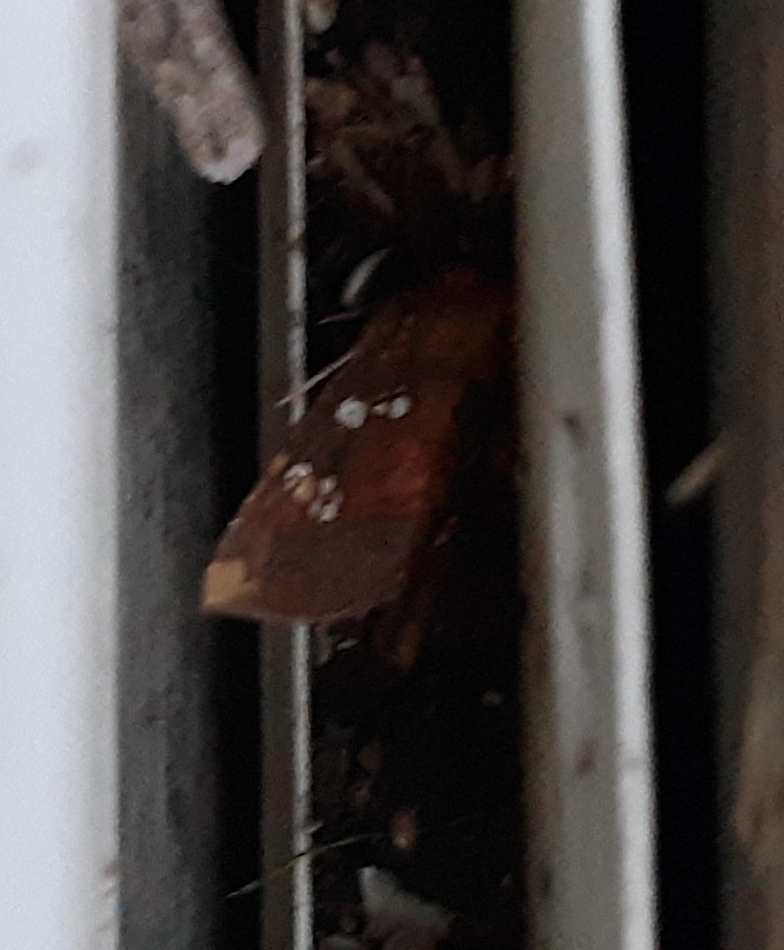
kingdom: Animalia
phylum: Arthropoda
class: Insecta
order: Lepidoptera
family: Noctuidae
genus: Papaipema
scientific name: Papaipema baptisiae
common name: Wild indigo borer moth
